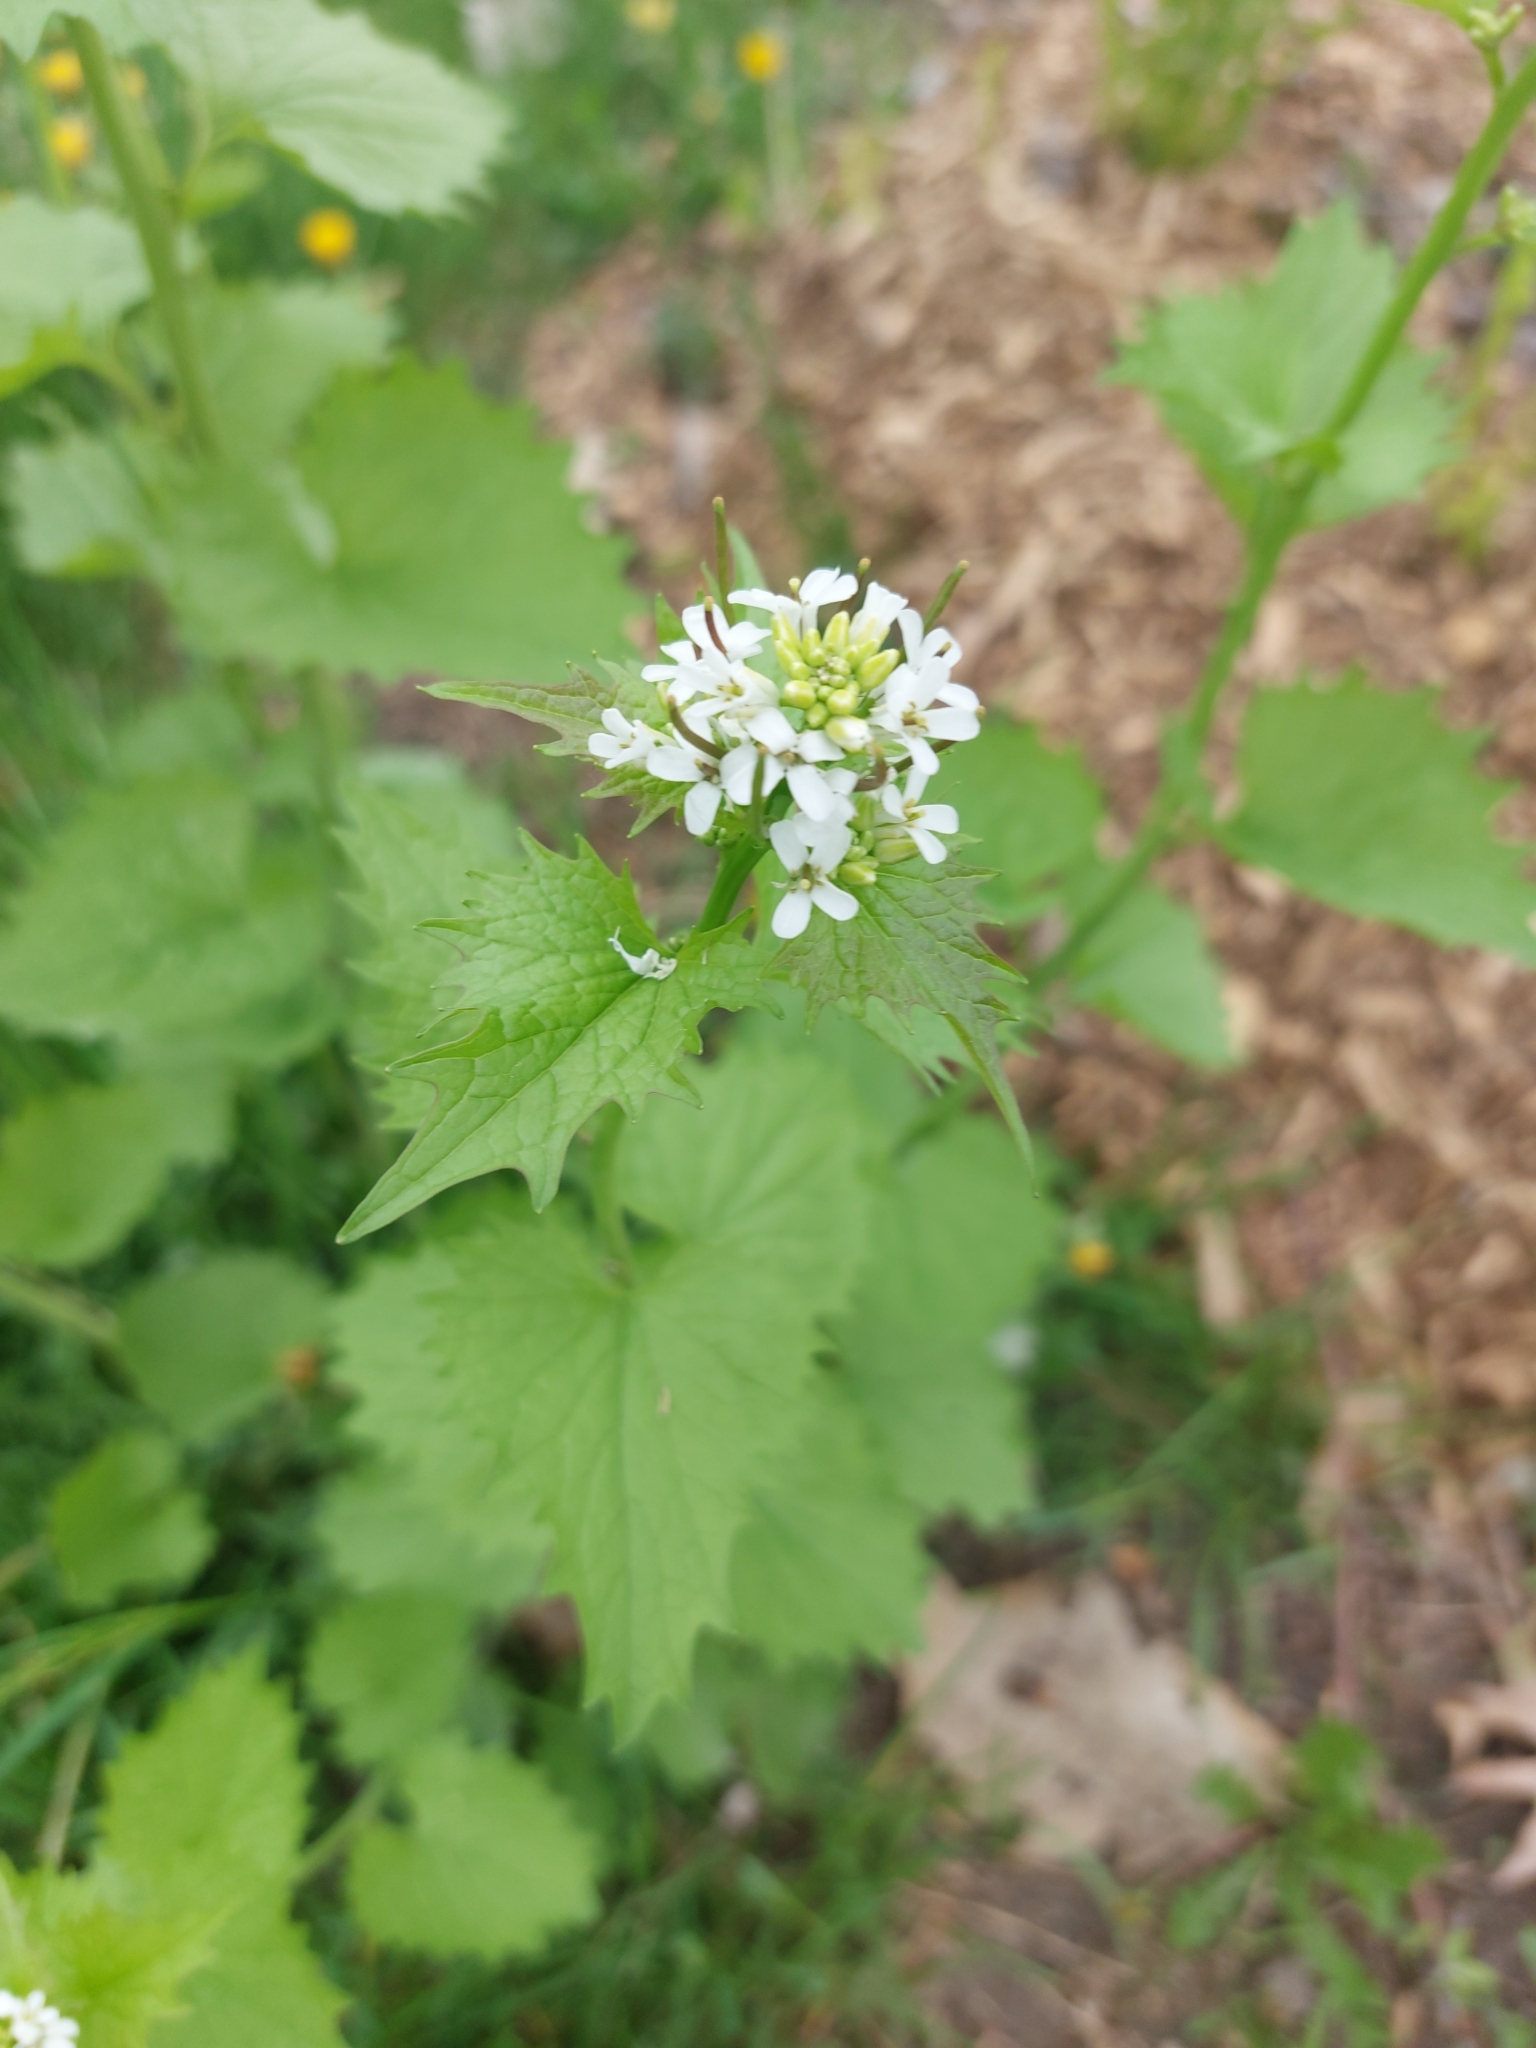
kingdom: Plantae
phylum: Tracheophyta
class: Magnoliopsida
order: Brassicales
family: Brassicaceae
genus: Alliaria
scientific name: Alliaria petiolata
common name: Garlic mustard
